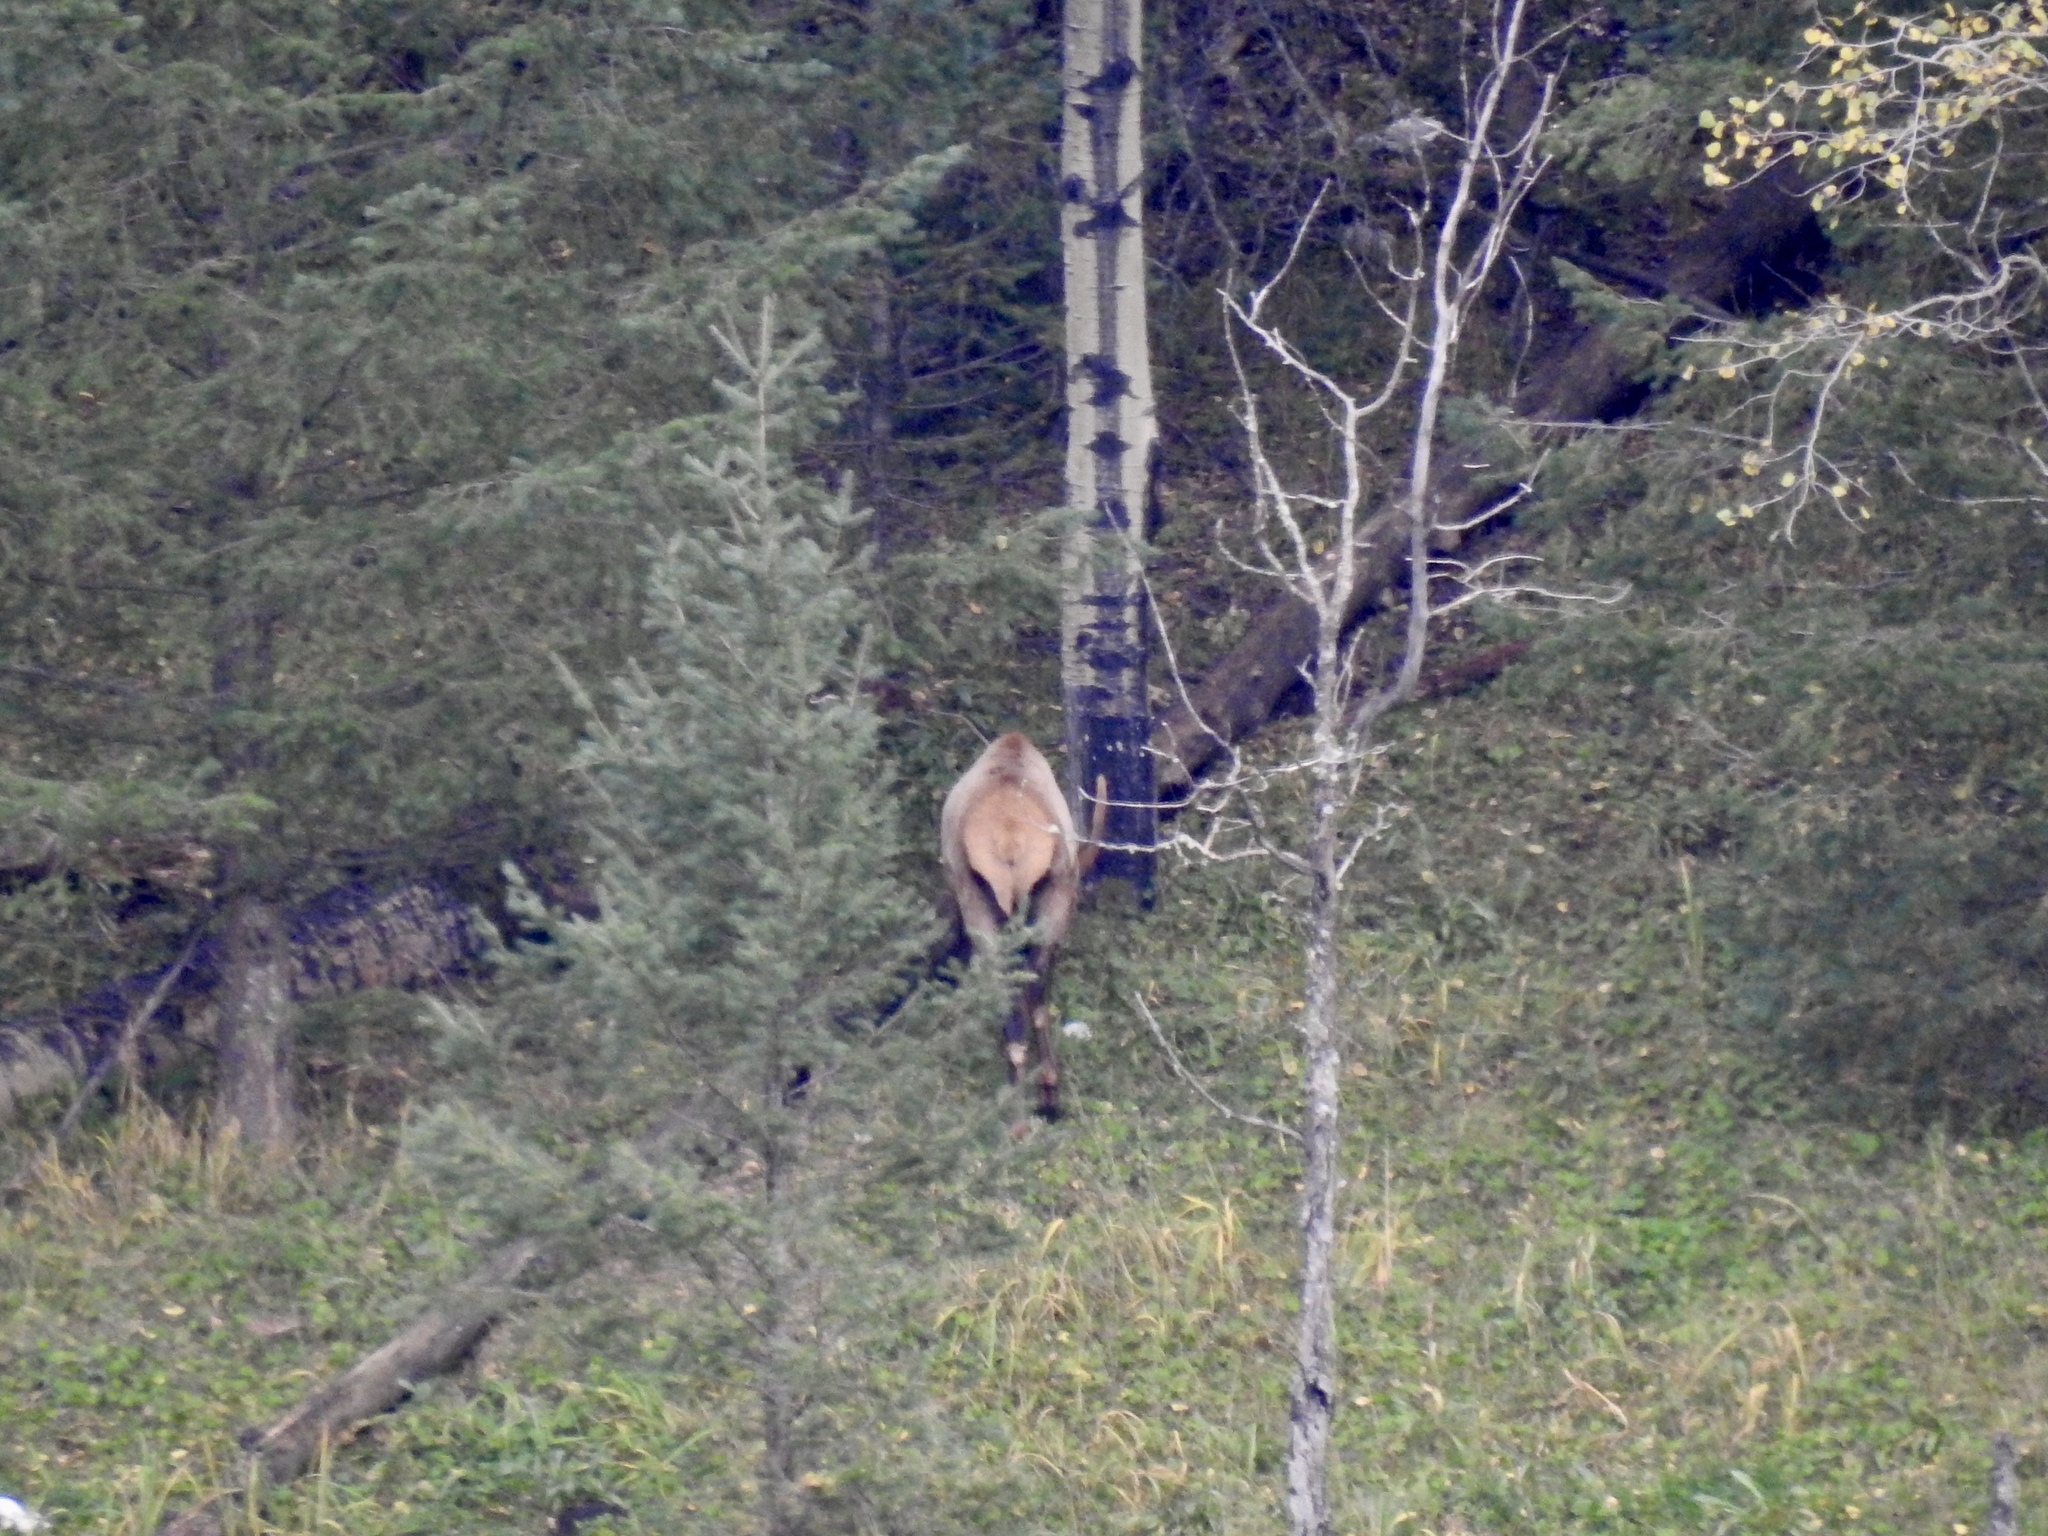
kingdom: Animalia
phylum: Chordata
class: Mammalia
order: Artiodactyla
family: Cervidae
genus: Cervus
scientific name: Cervus elaphus
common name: Red deer
